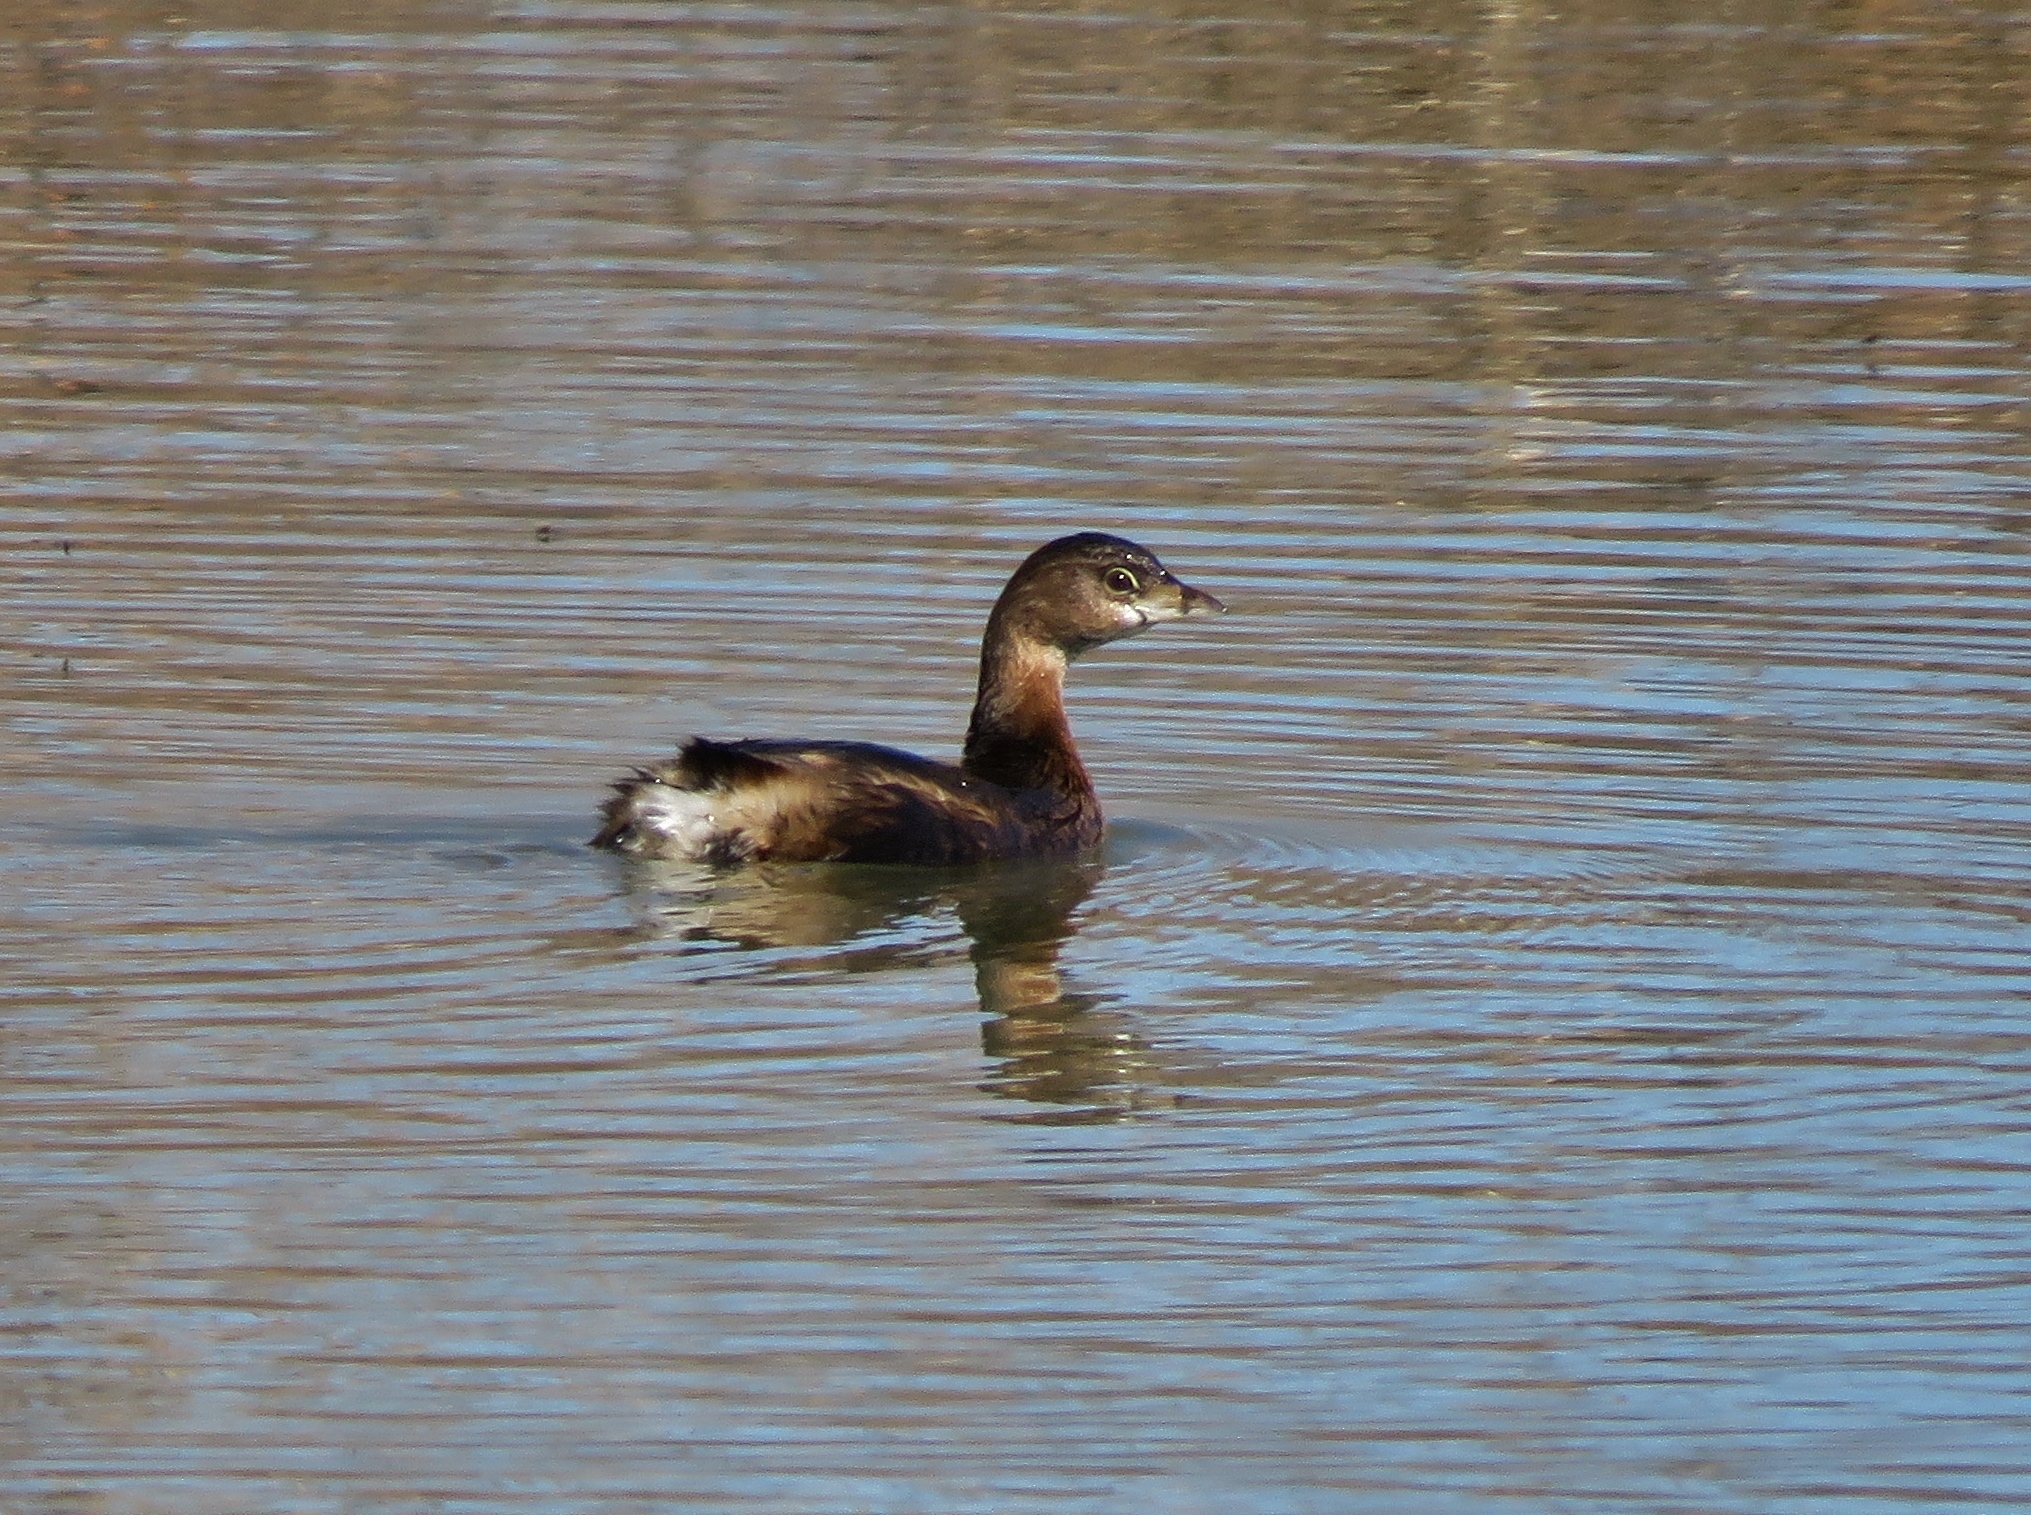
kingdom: Animalia
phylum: Chordata
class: Aves
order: Podicipediformes
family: Podicipedidae
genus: Podilymbus
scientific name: Podilymbus podiceps
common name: Pied-billed grebe
